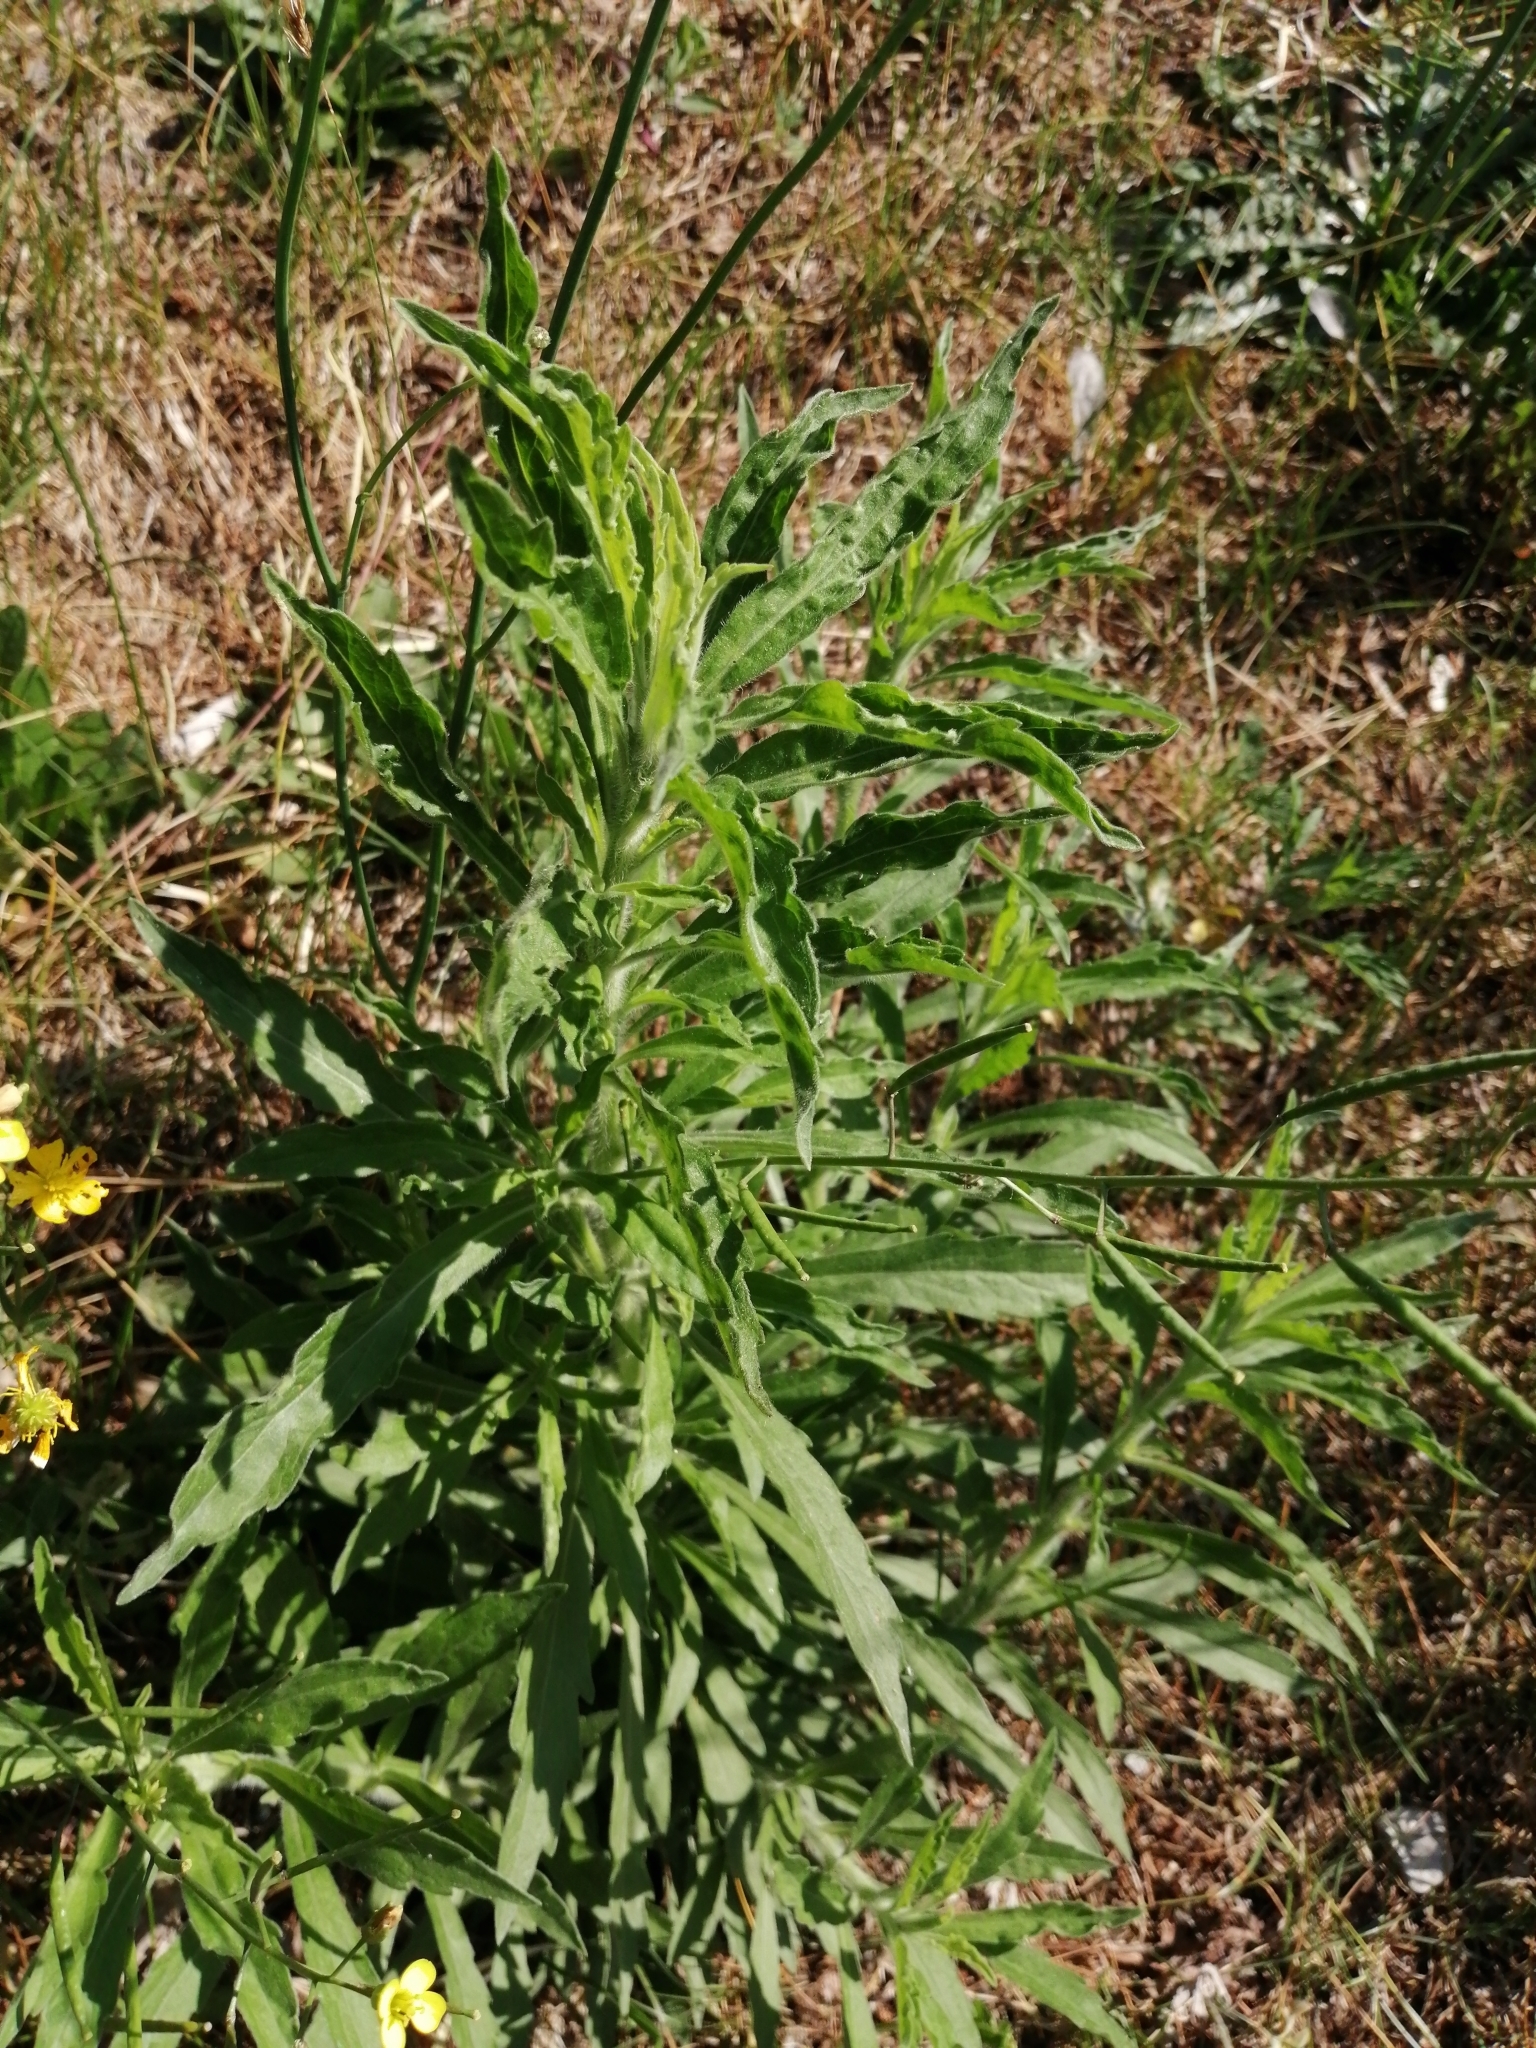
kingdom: Plantae
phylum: Tracheophyta
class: Magnoliopsida
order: Asterales
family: Asteraceae
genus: Erigeron
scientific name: Erigeron canadensis
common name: Canadian fleabane
